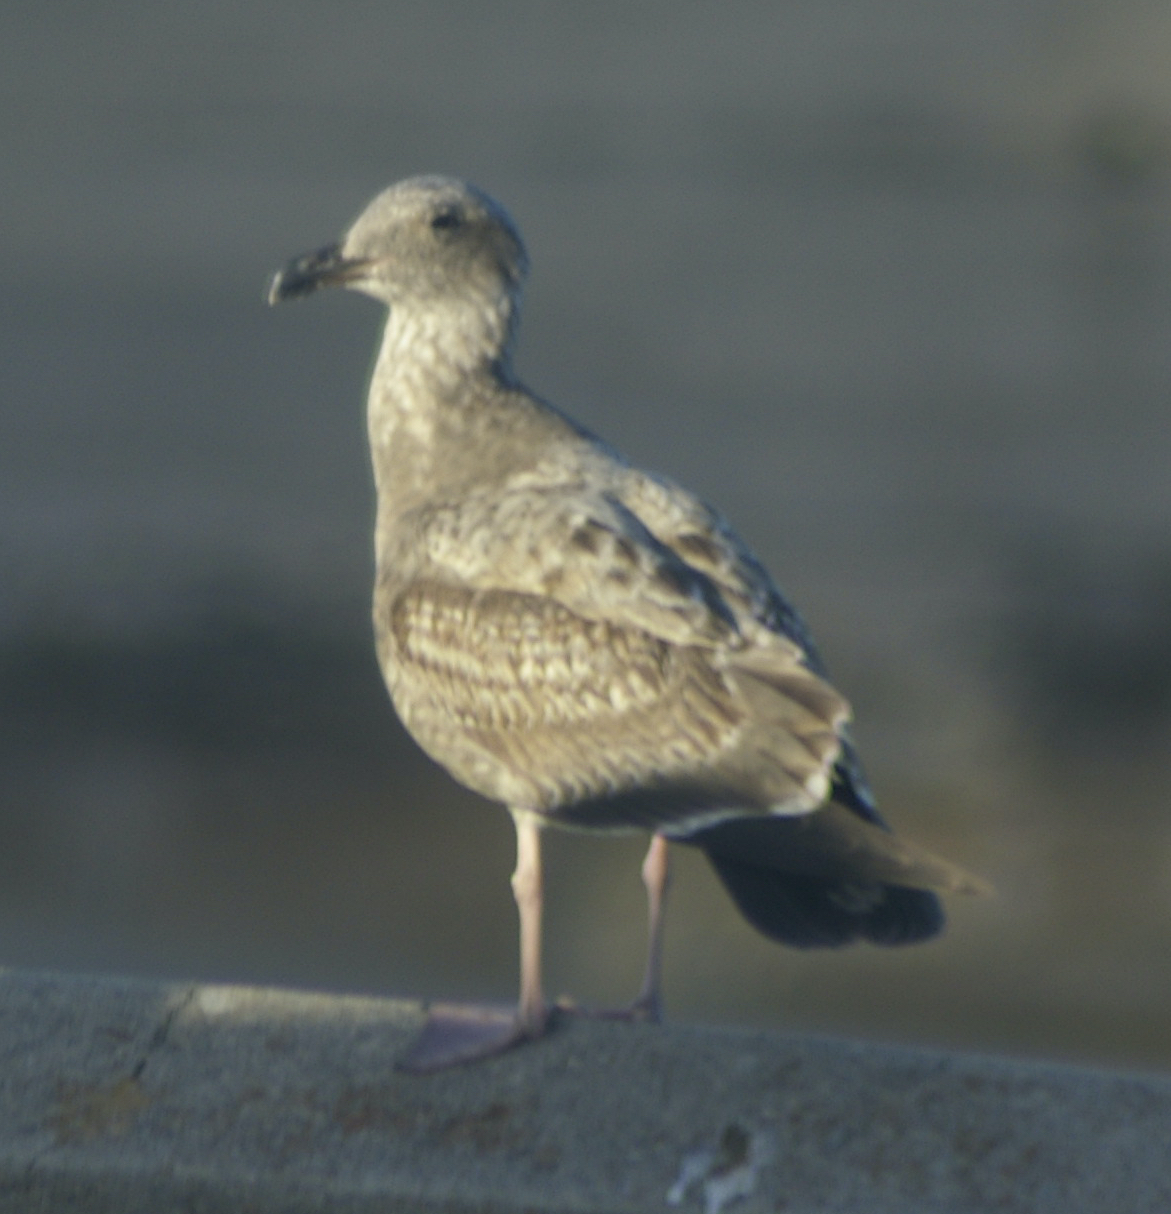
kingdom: Animalia
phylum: Chordata
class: Aves
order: Charadriiformes
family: Laridae
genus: Larus
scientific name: Larus occidentalis
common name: Western gull
